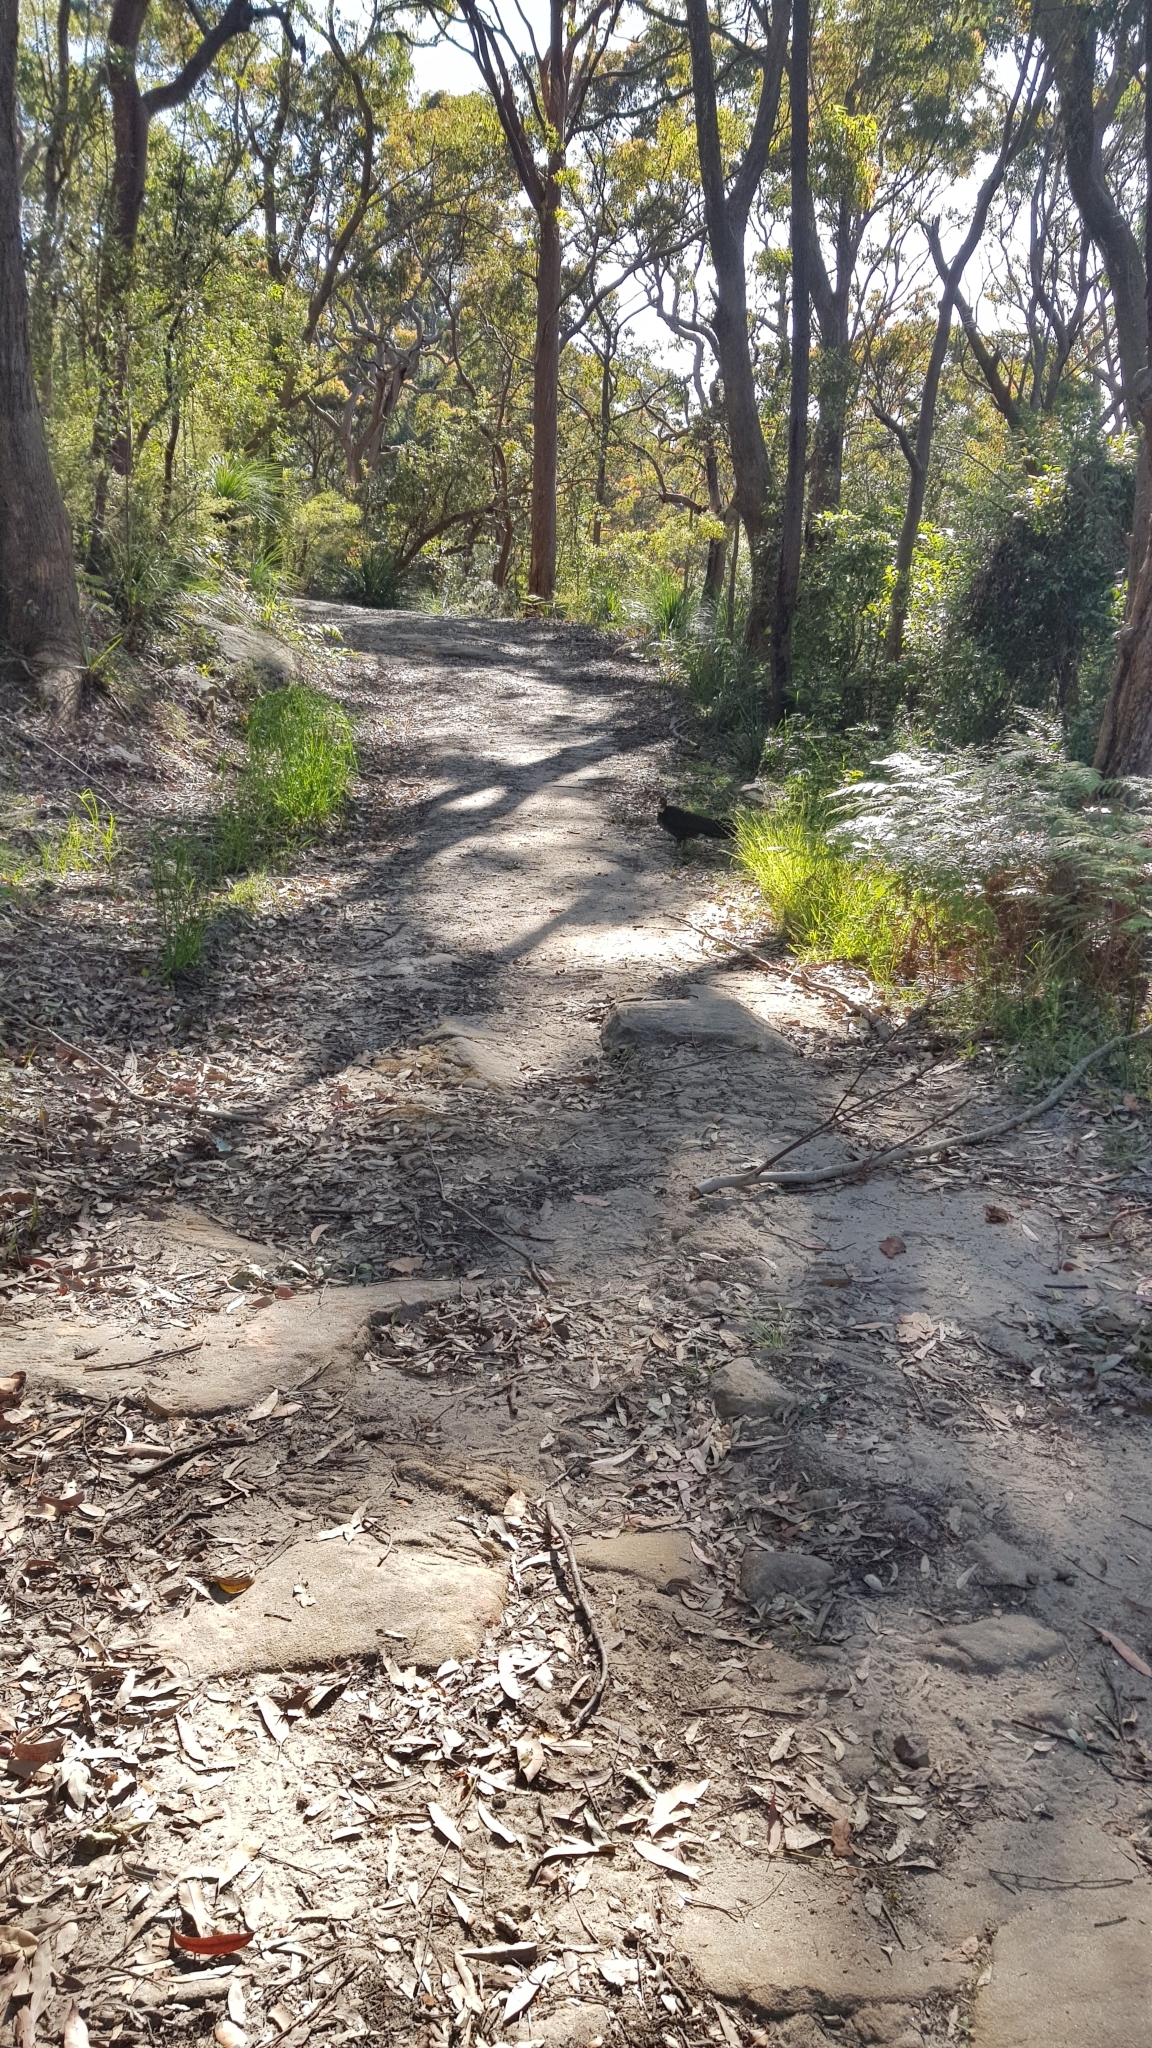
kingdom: Animalia
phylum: Chordata
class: Aves
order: Galliformes
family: Megapodiidae
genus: Alectura
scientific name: Alectura lathami
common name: Australian brushturkey
